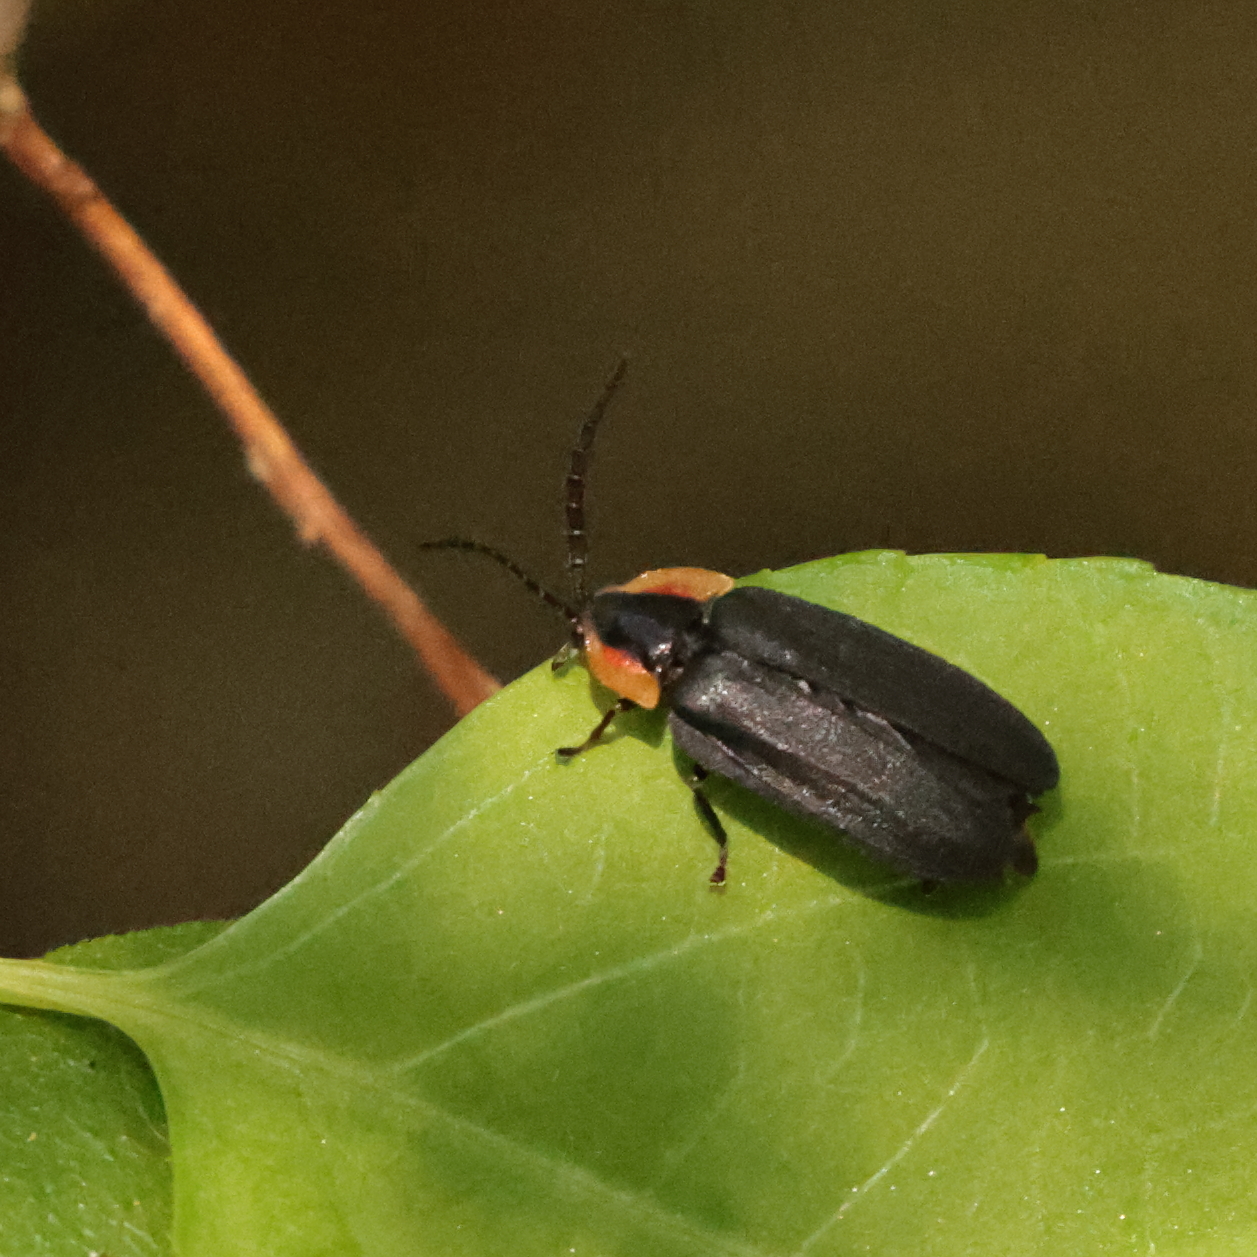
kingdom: Animalia
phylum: Arthropoda
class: Insecta
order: Coleoptera
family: Lampyridae
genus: Lucidota
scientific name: Lucidota atra
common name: Black firefly
